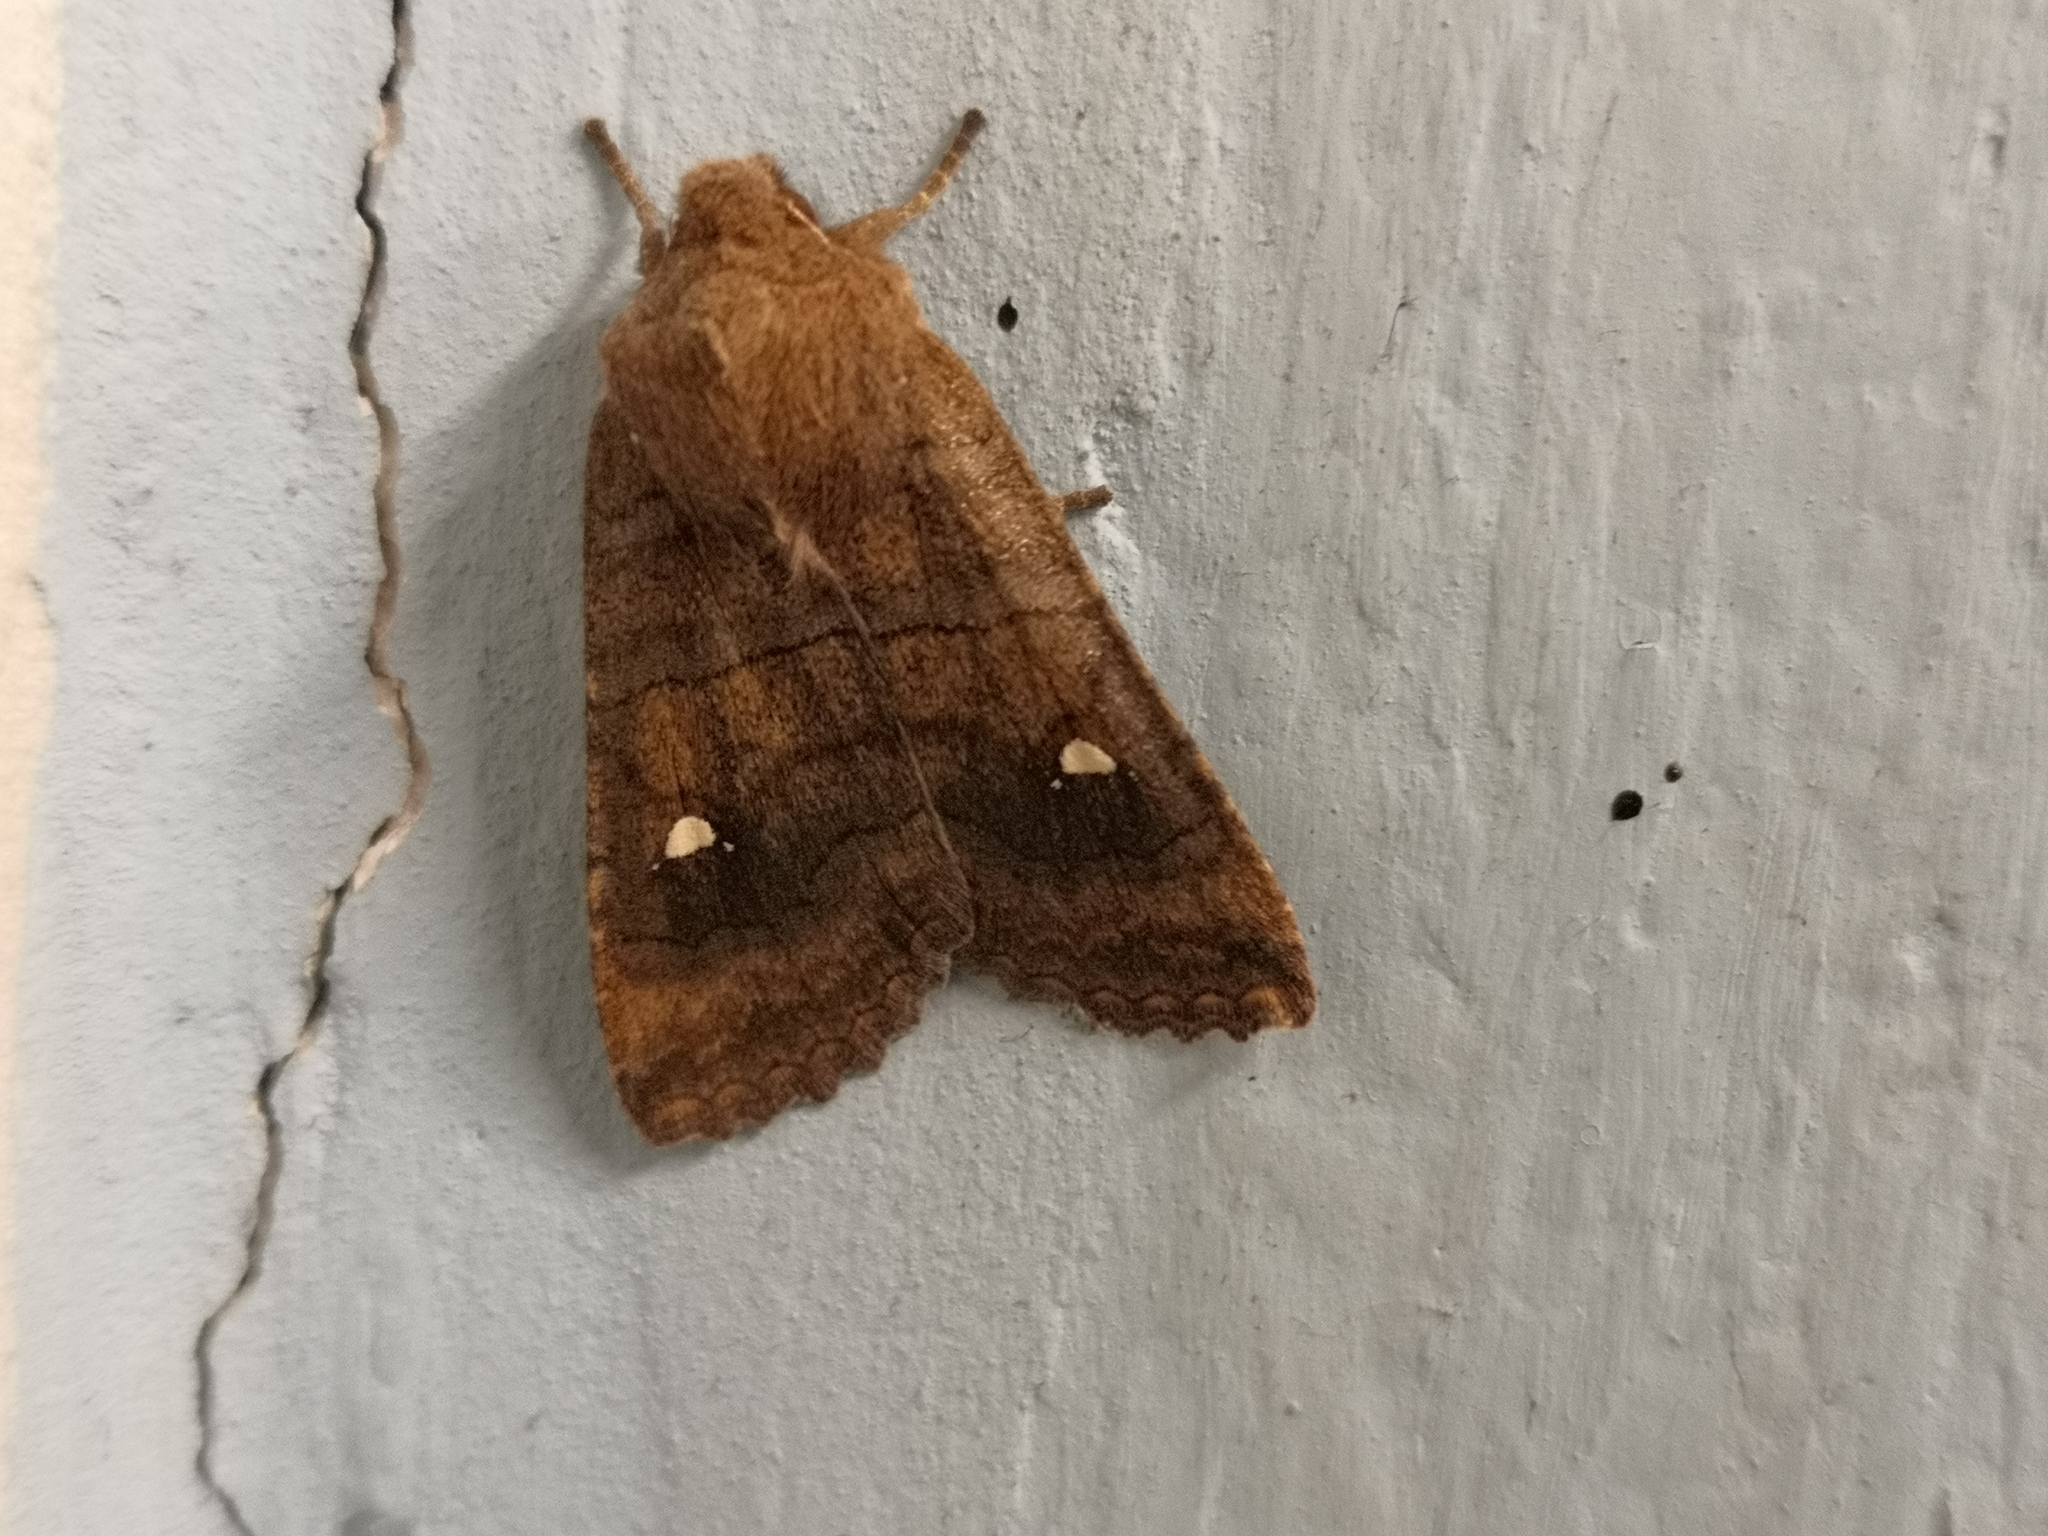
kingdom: Animalia
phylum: Arthropoda
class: Insecta
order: Lepidoptera
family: Noctuidae
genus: Eupsilia
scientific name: Eupsilia transversa
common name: Satellite
